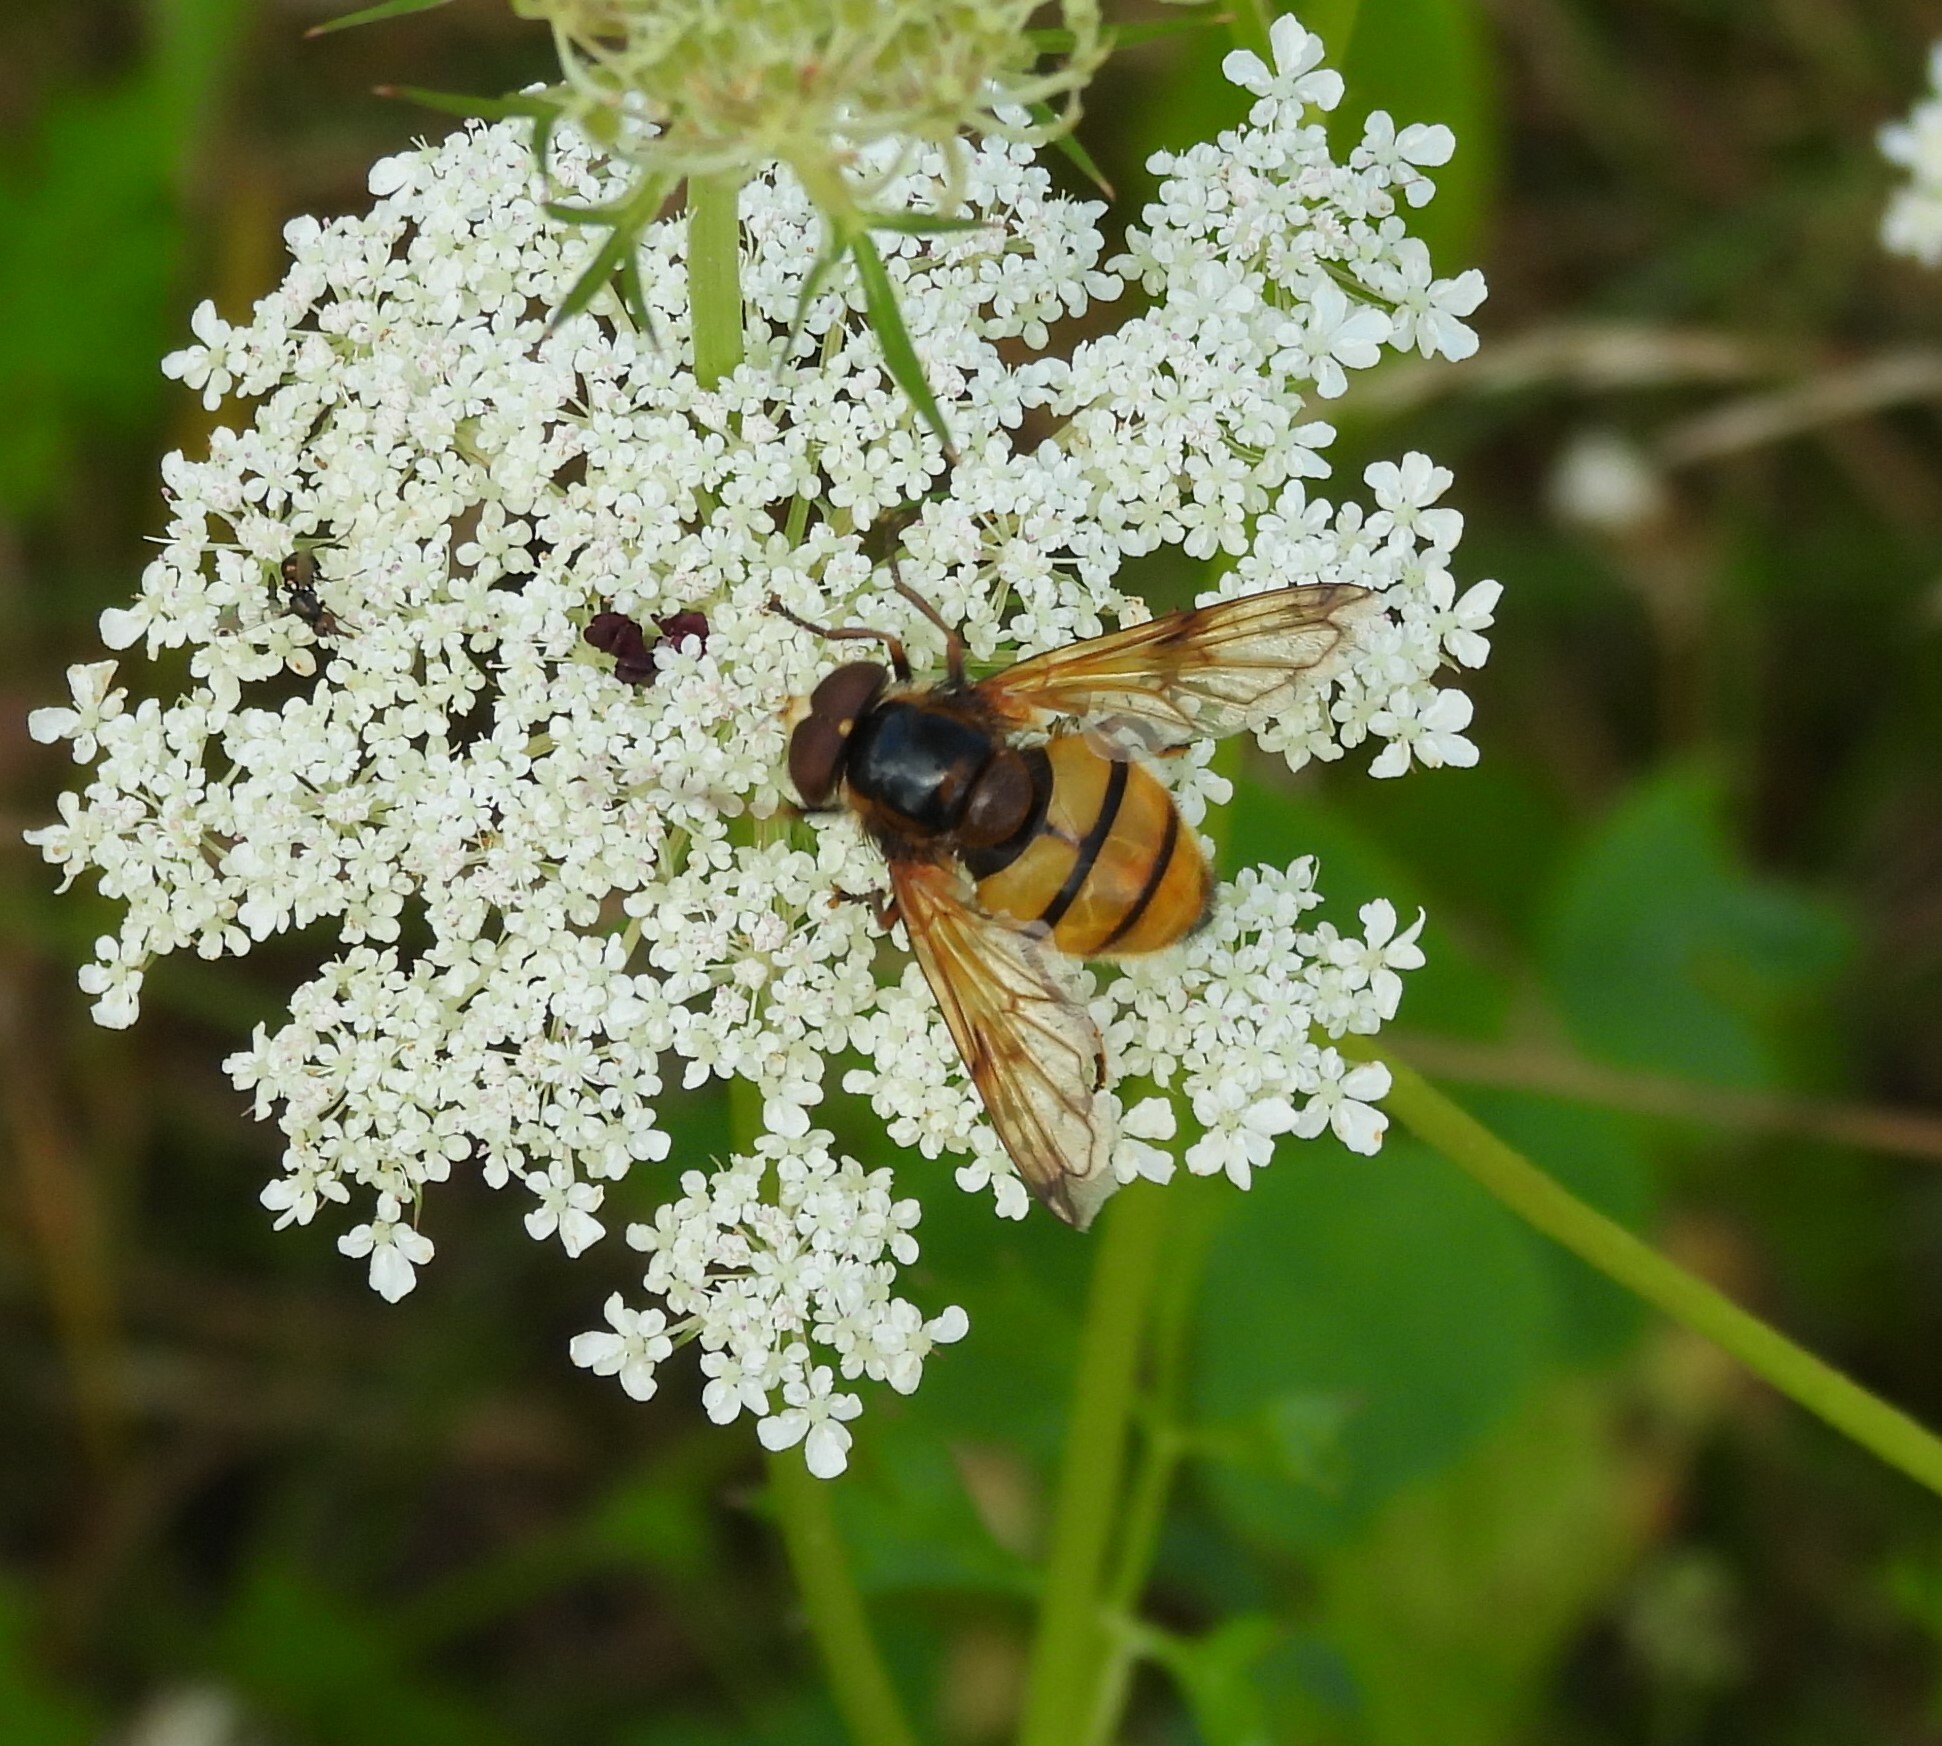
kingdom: Animalia
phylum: Arthropoda
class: Insecta
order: Diptera
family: Syrphidae
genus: Volucella
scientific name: Volucella inanis
